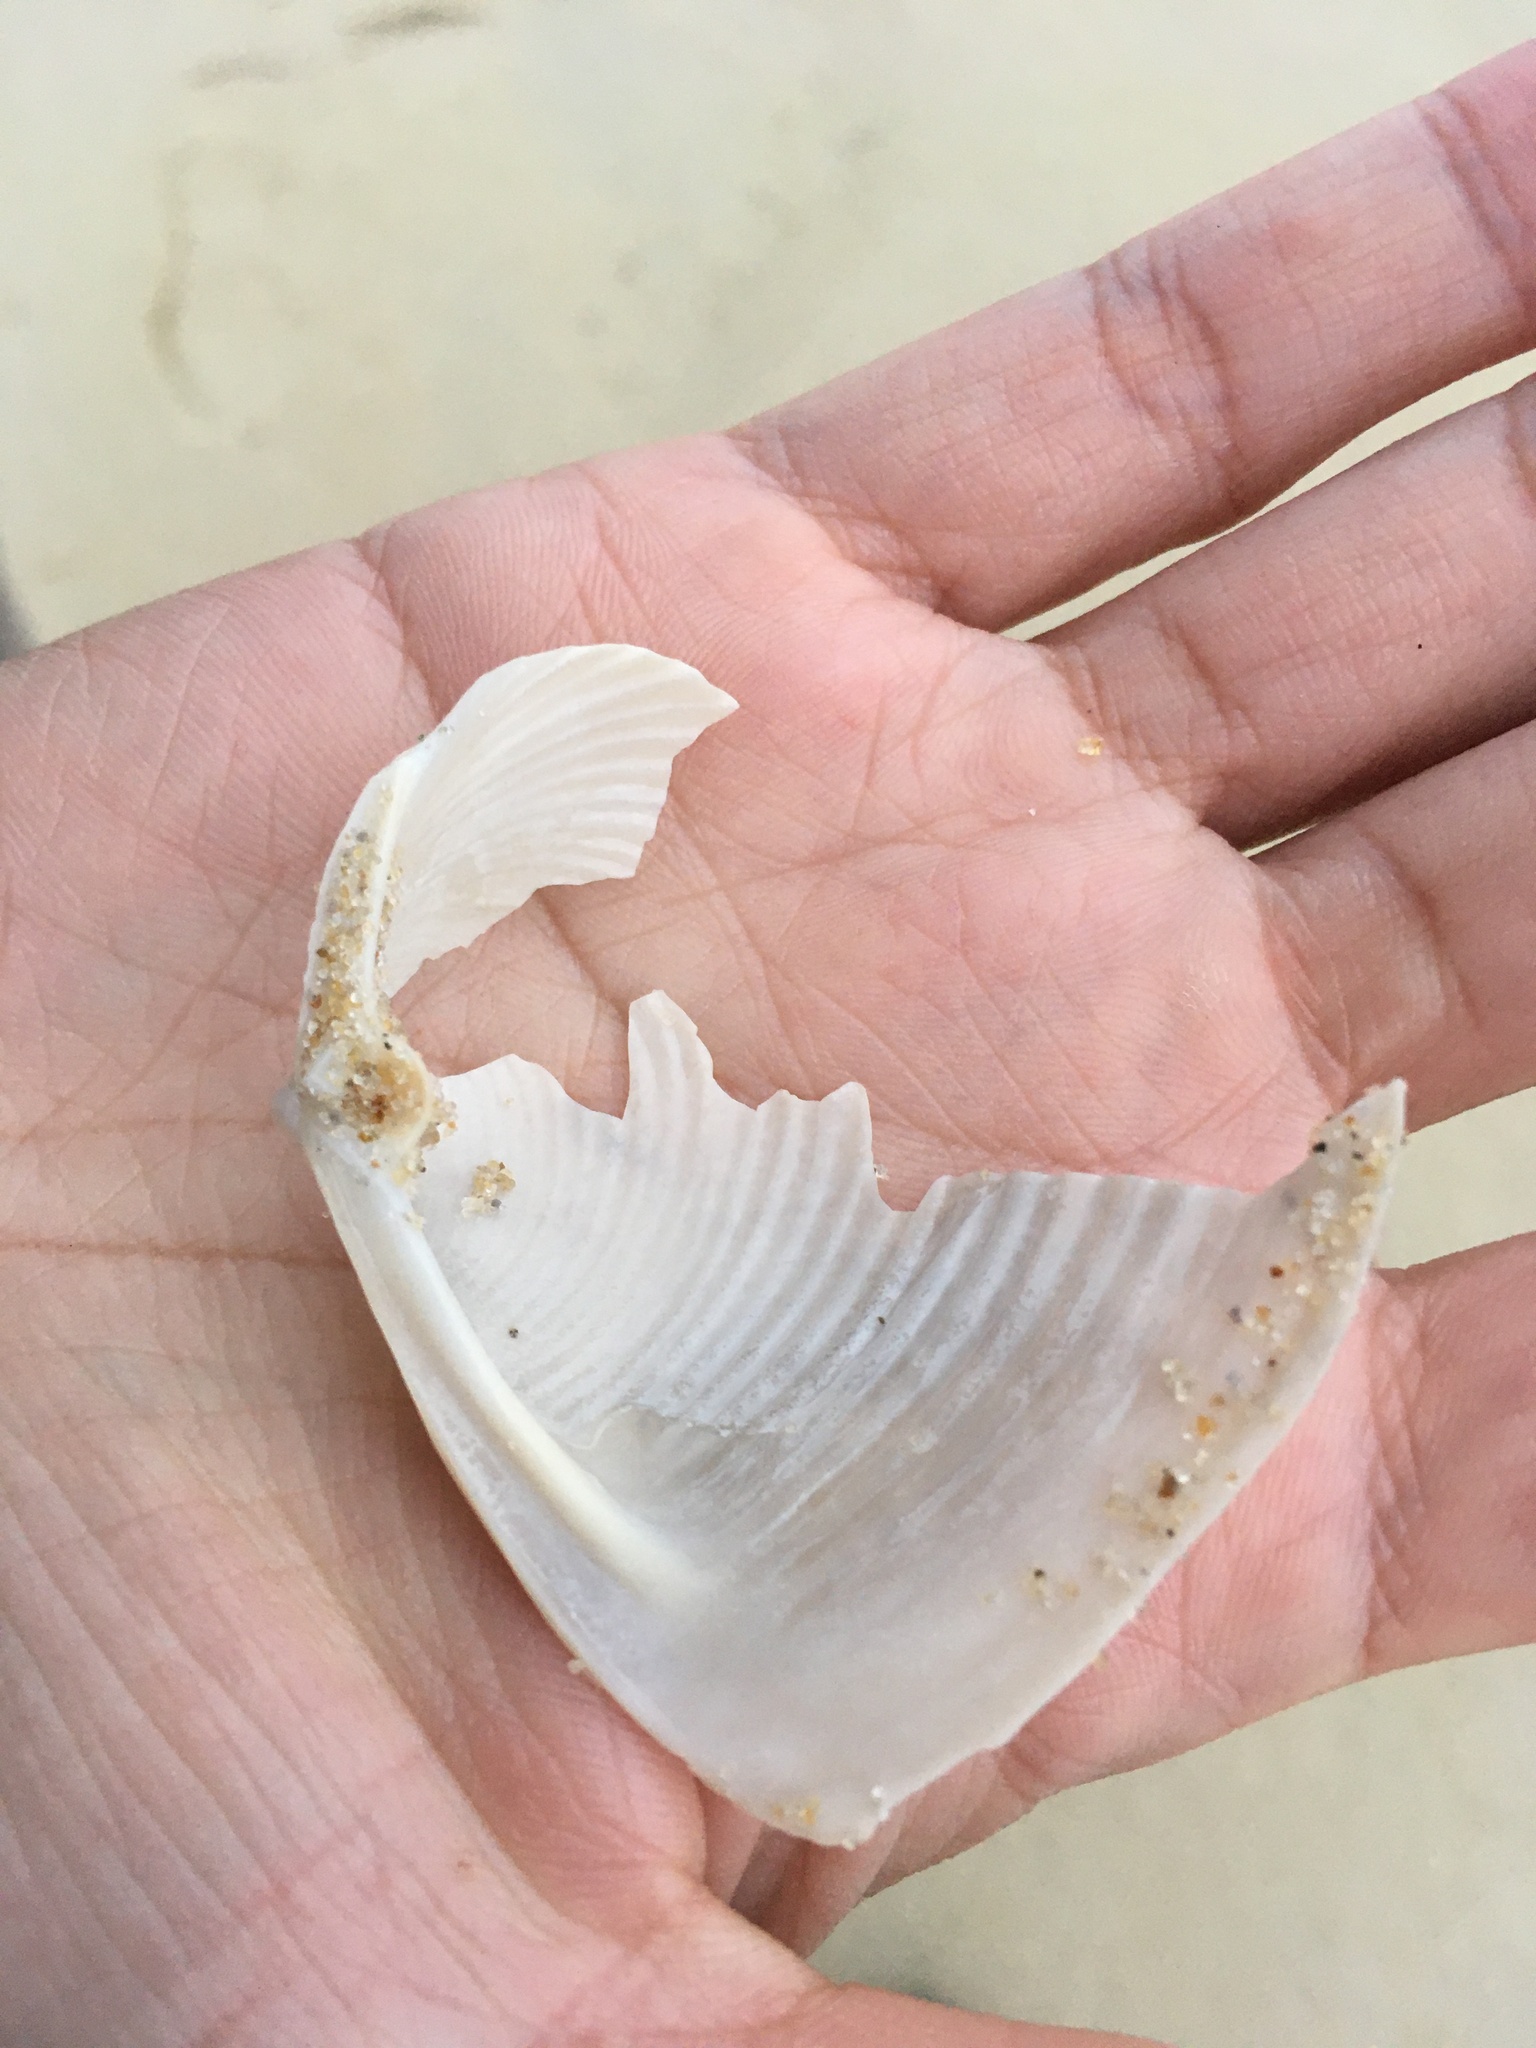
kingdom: Animalia
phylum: Mollusca
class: Bivalvia
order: Venerida
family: Anatinellidae
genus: Raeta
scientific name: Raeta plicatella
